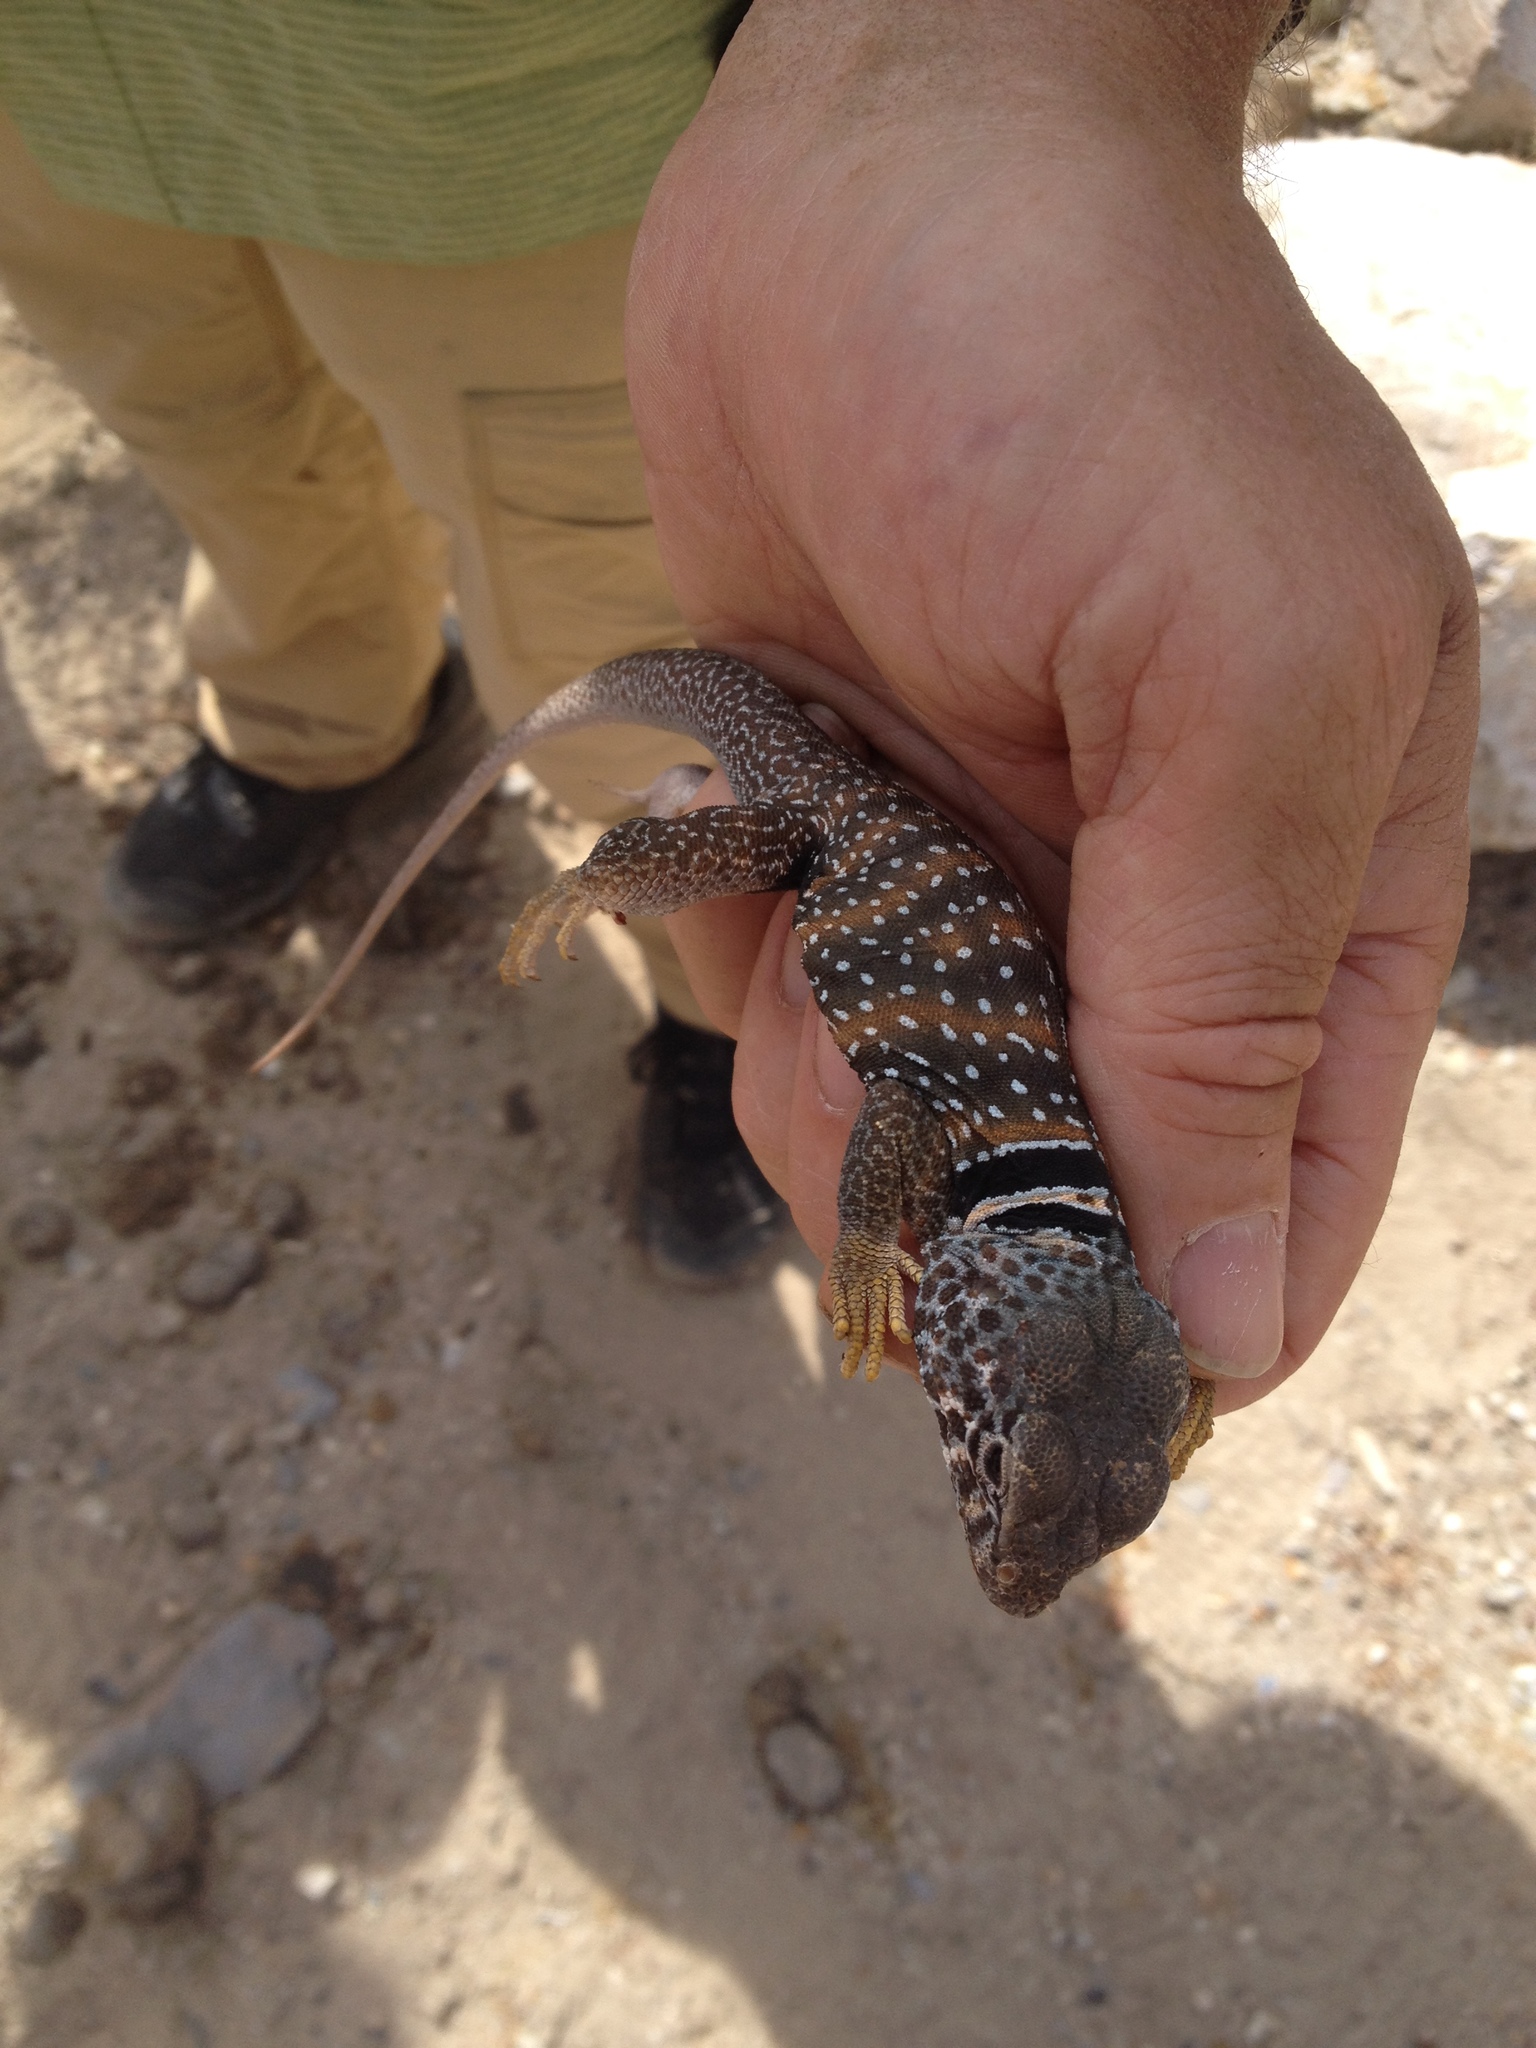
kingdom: Animalia
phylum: Chordata
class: Squamata
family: Crotaphytidae
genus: Crotaphytus
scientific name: Crotaphytus bicinctores
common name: Mojave black-collared lizard
